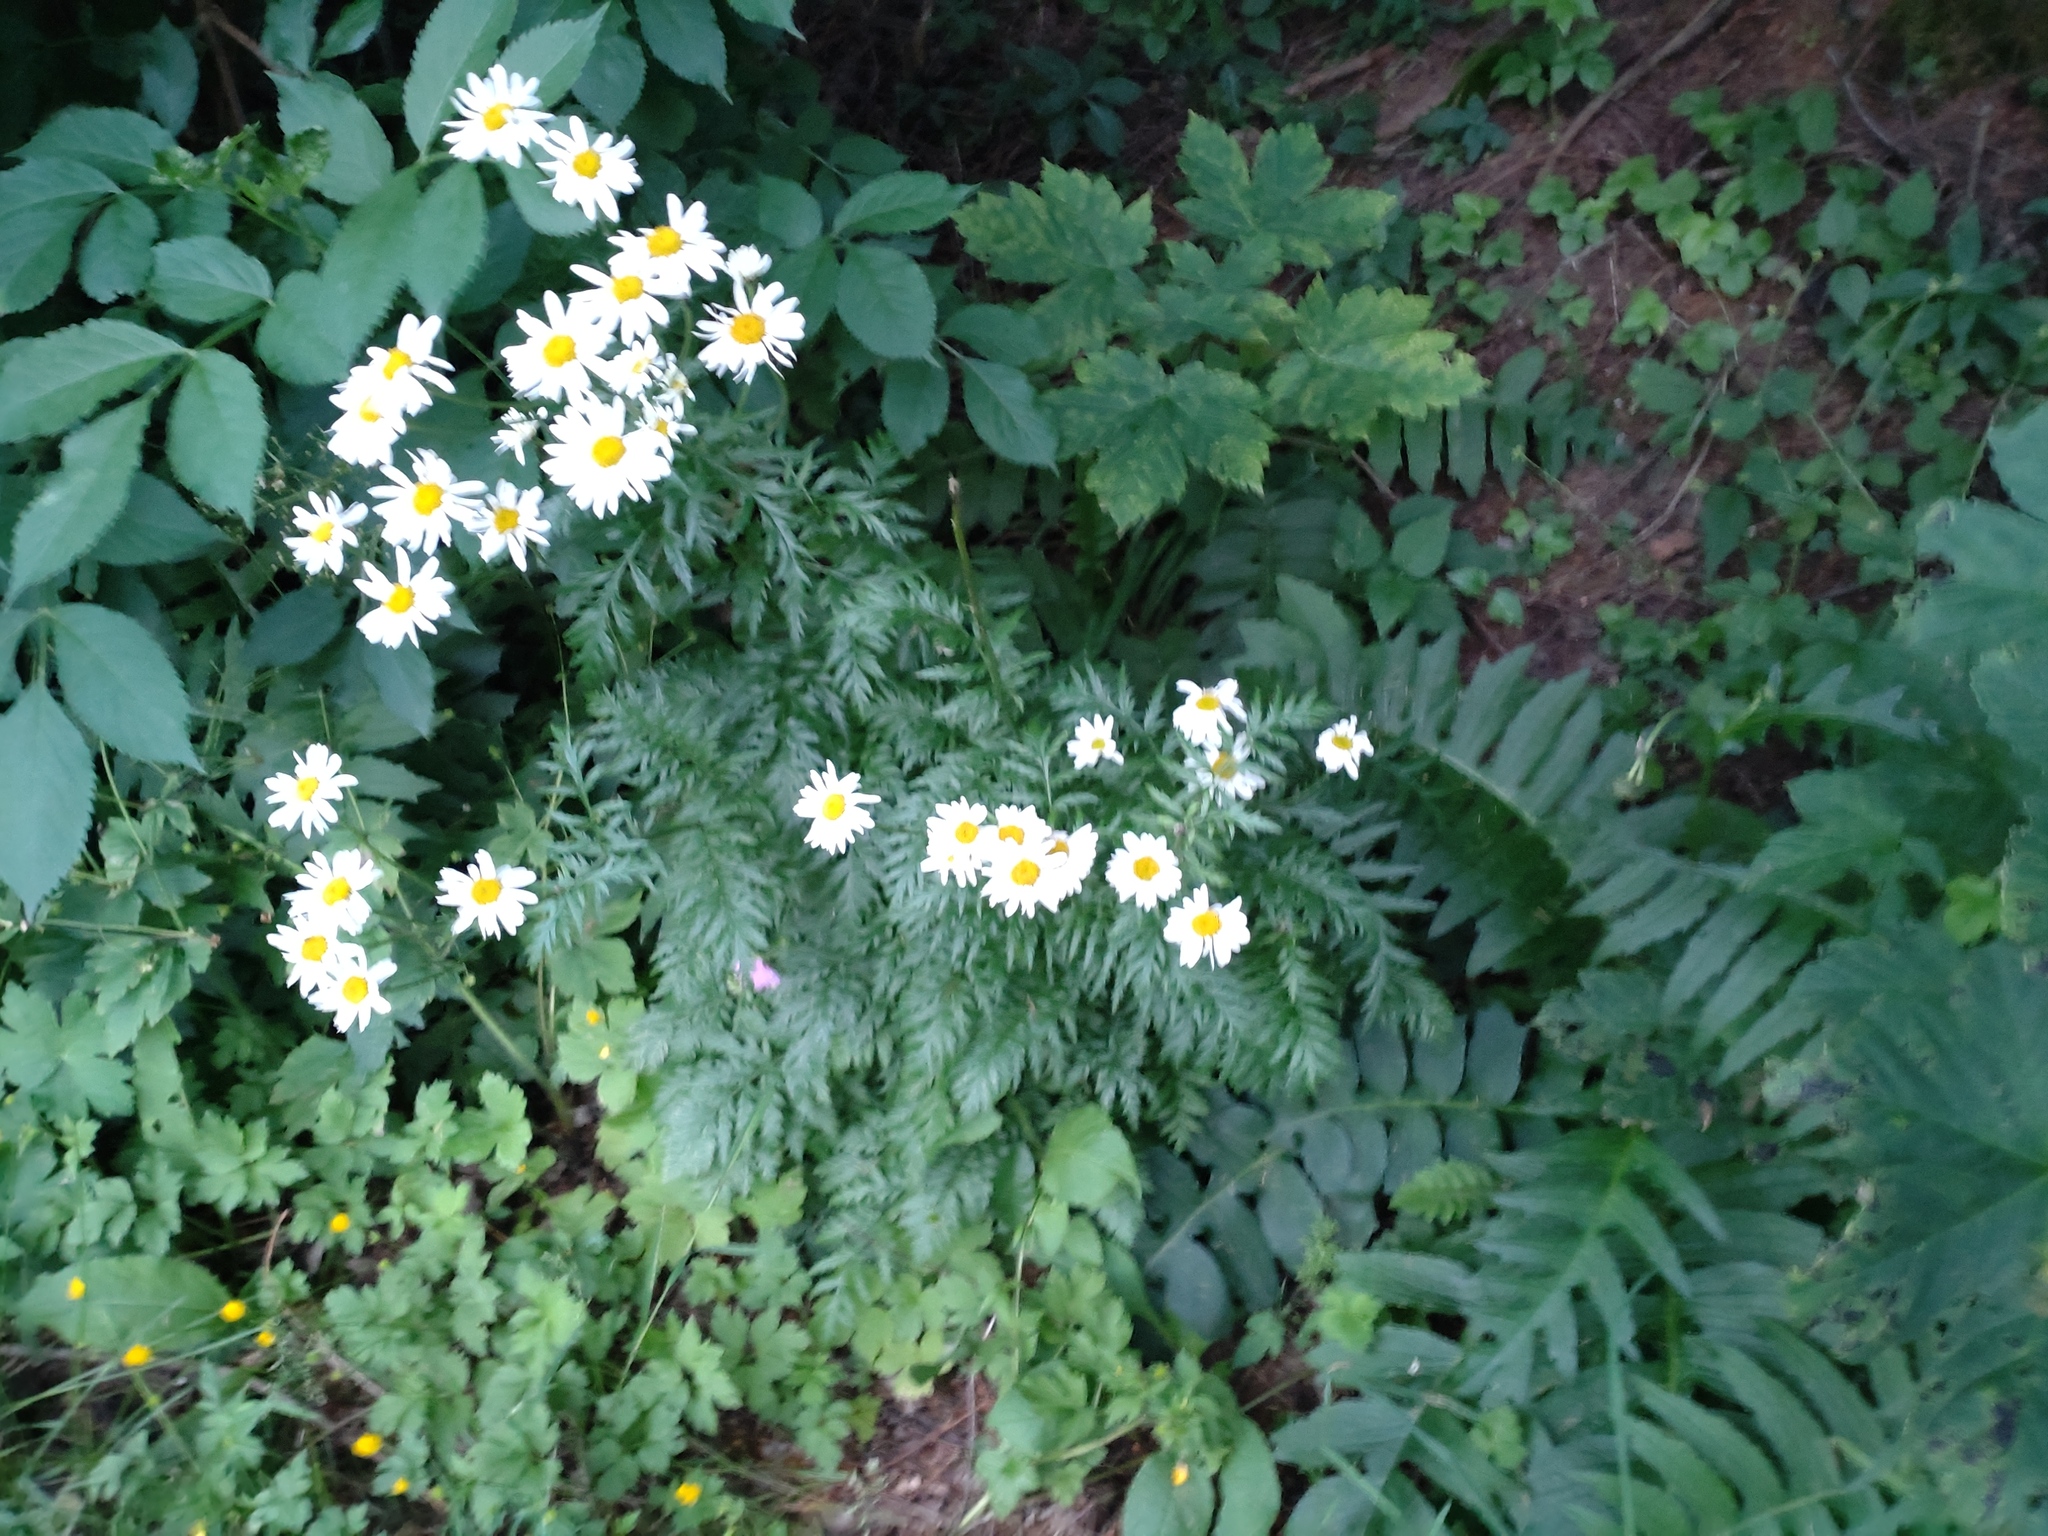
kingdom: Plantae
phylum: Tracheophyta
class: Magnoliopsida
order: Asterales
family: Asteraceae
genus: Tanacetum
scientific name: Tanacetum corymbosum
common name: Scentless feverfew
